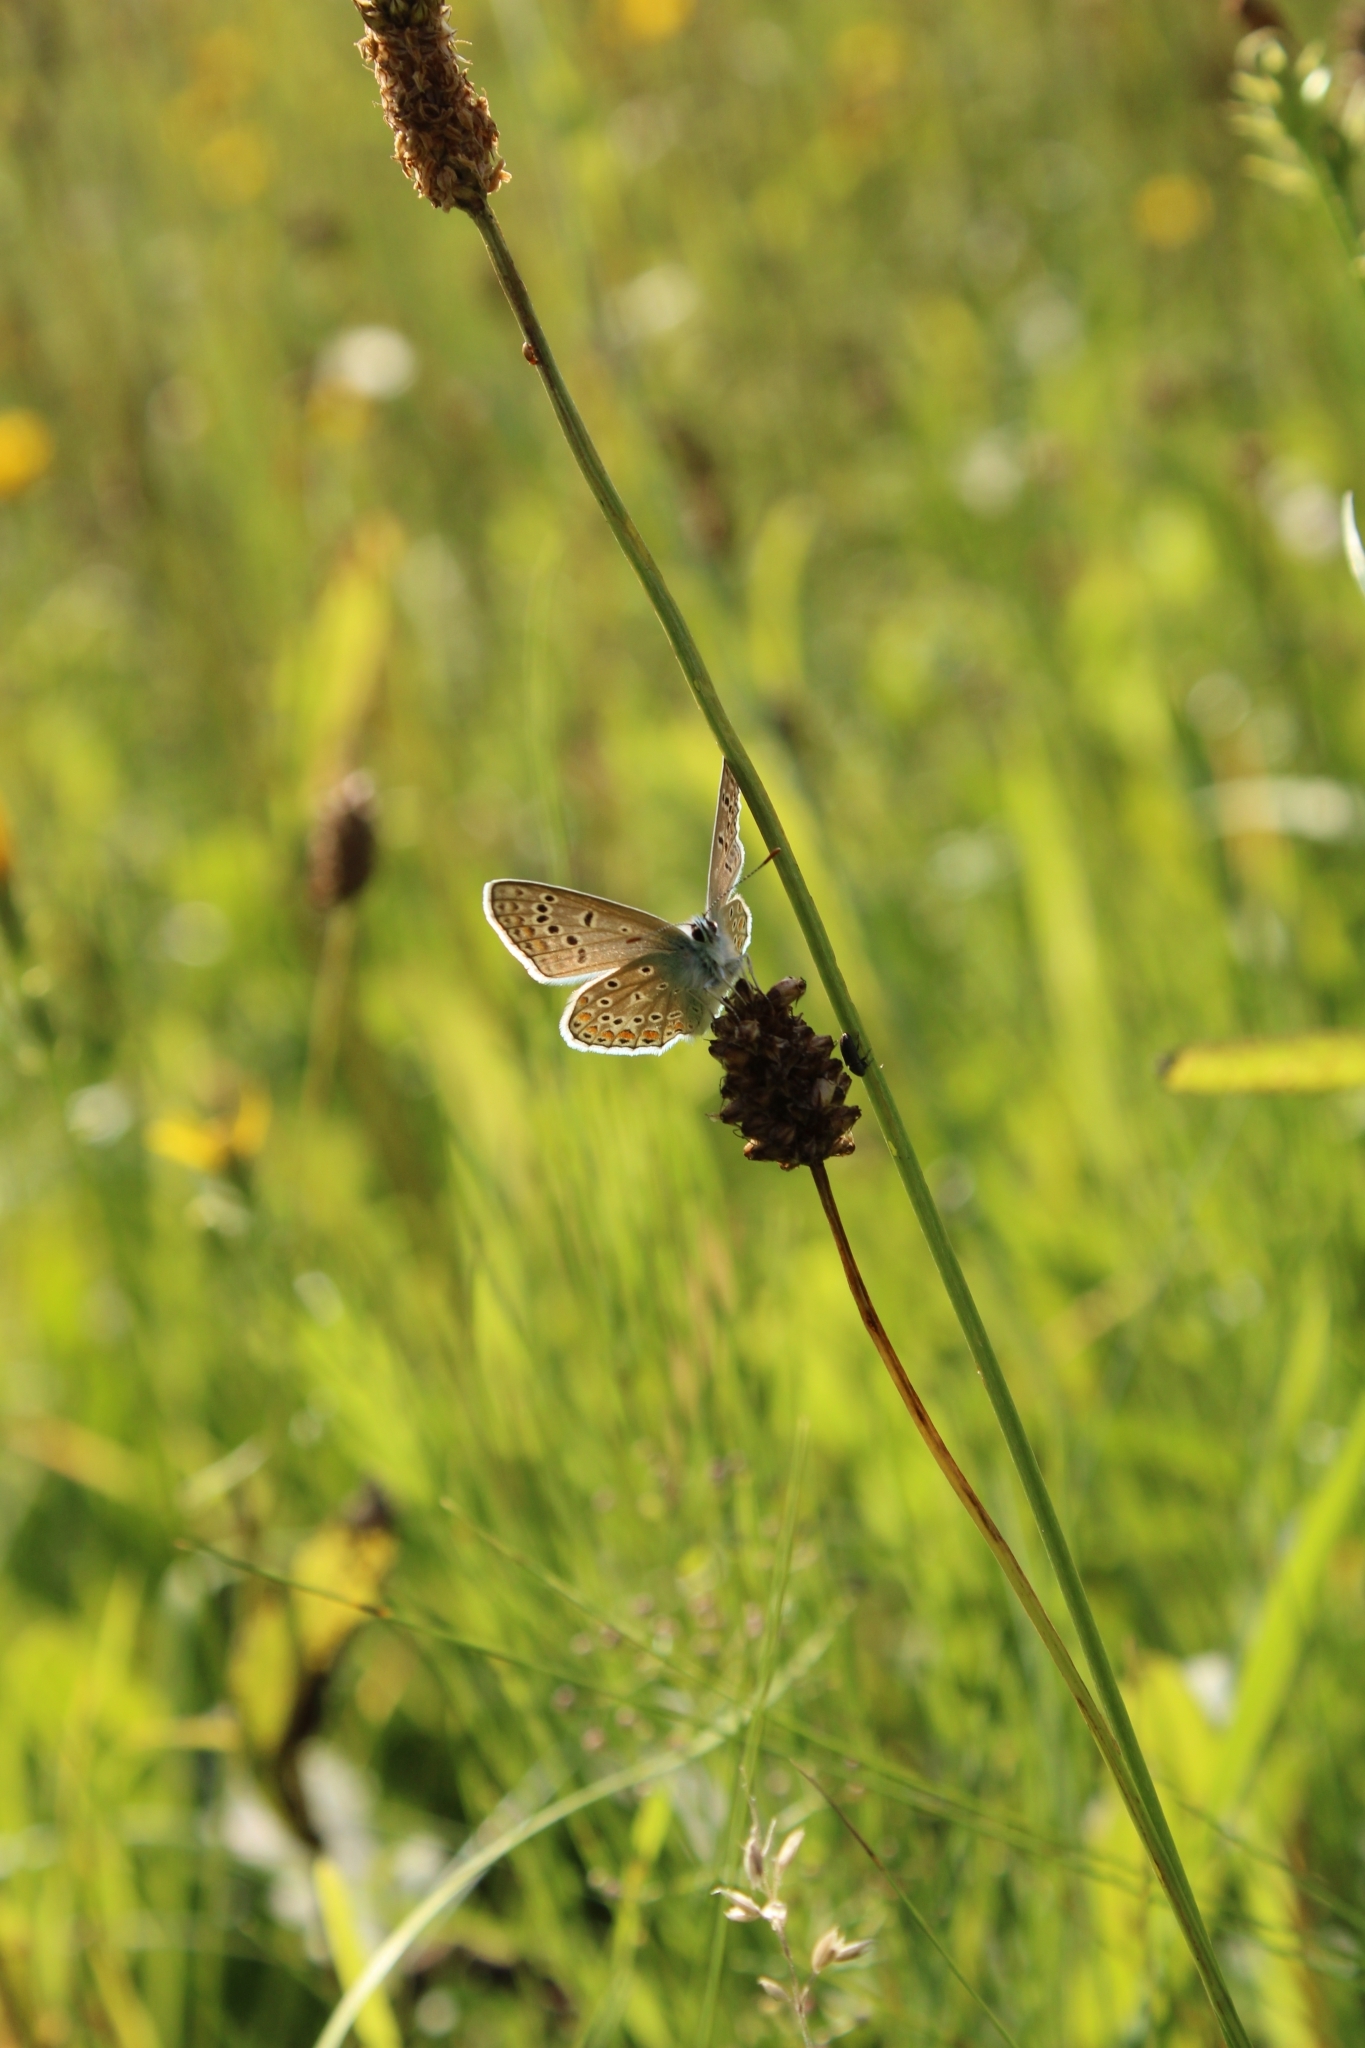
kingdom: Animalia
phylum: Arthropoda
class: Insecta
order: Lepidoptera
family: Lycaenidae
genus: Polyommatus
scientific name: Polyommatus icarus
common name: Common blue
